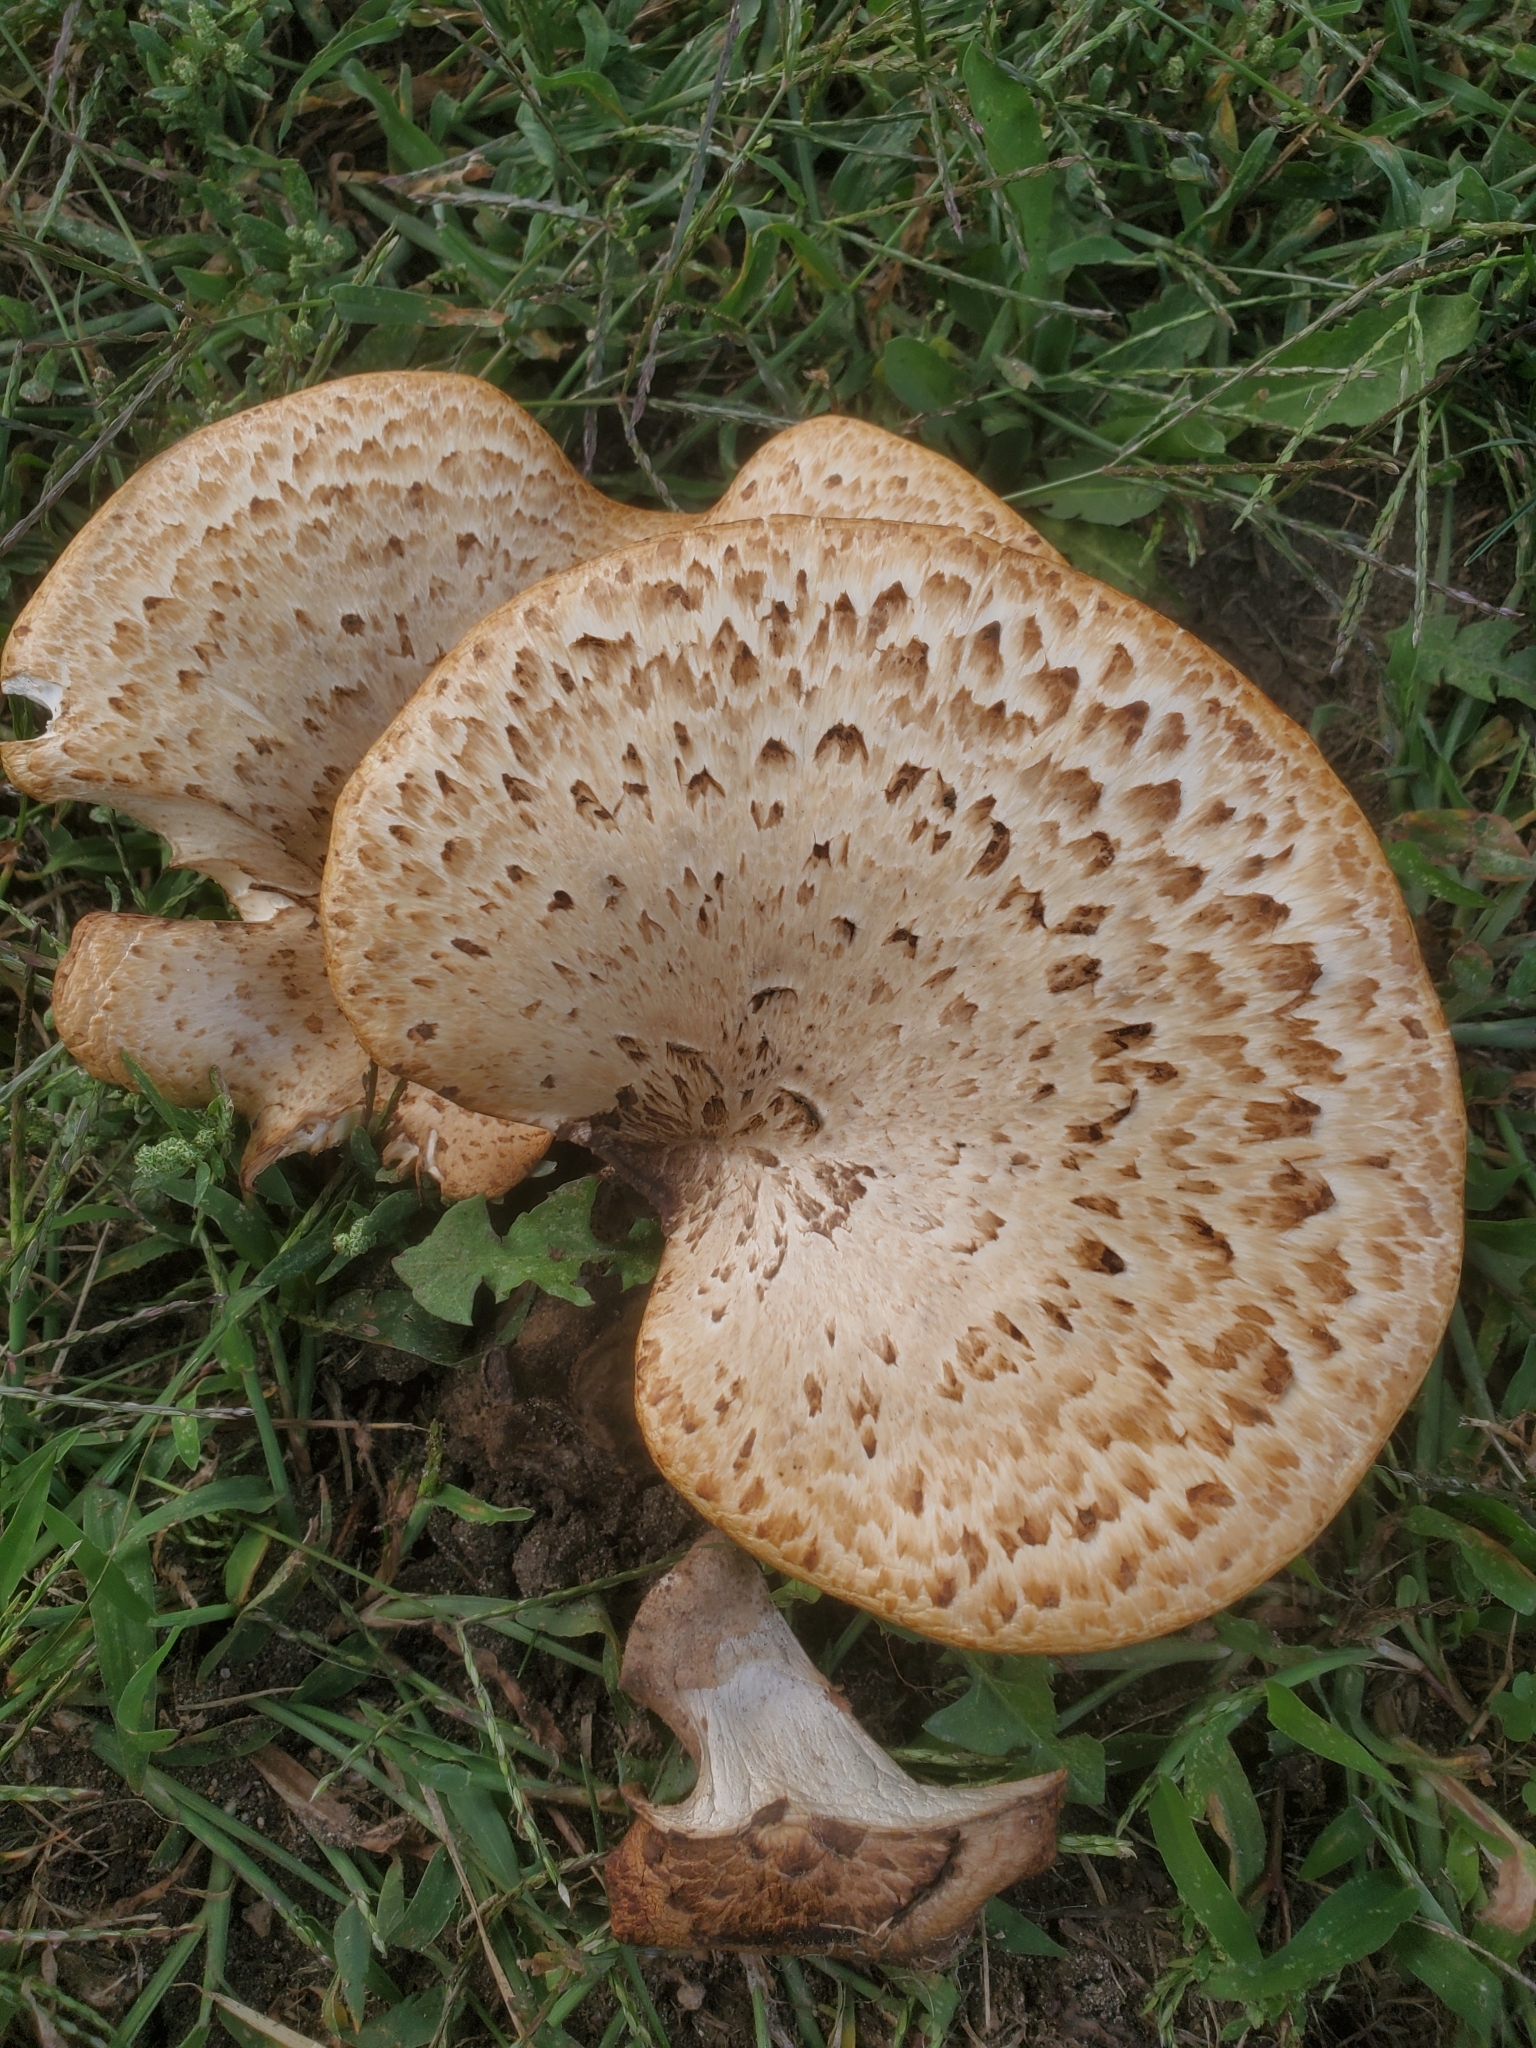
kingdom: Fungi
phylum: Basidiomycota
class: Agaricomycetes
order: Polyporales
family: Polyporaceae
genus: Cerioporus
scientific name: Cerioporus squamosus
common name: Dryad's saddle
